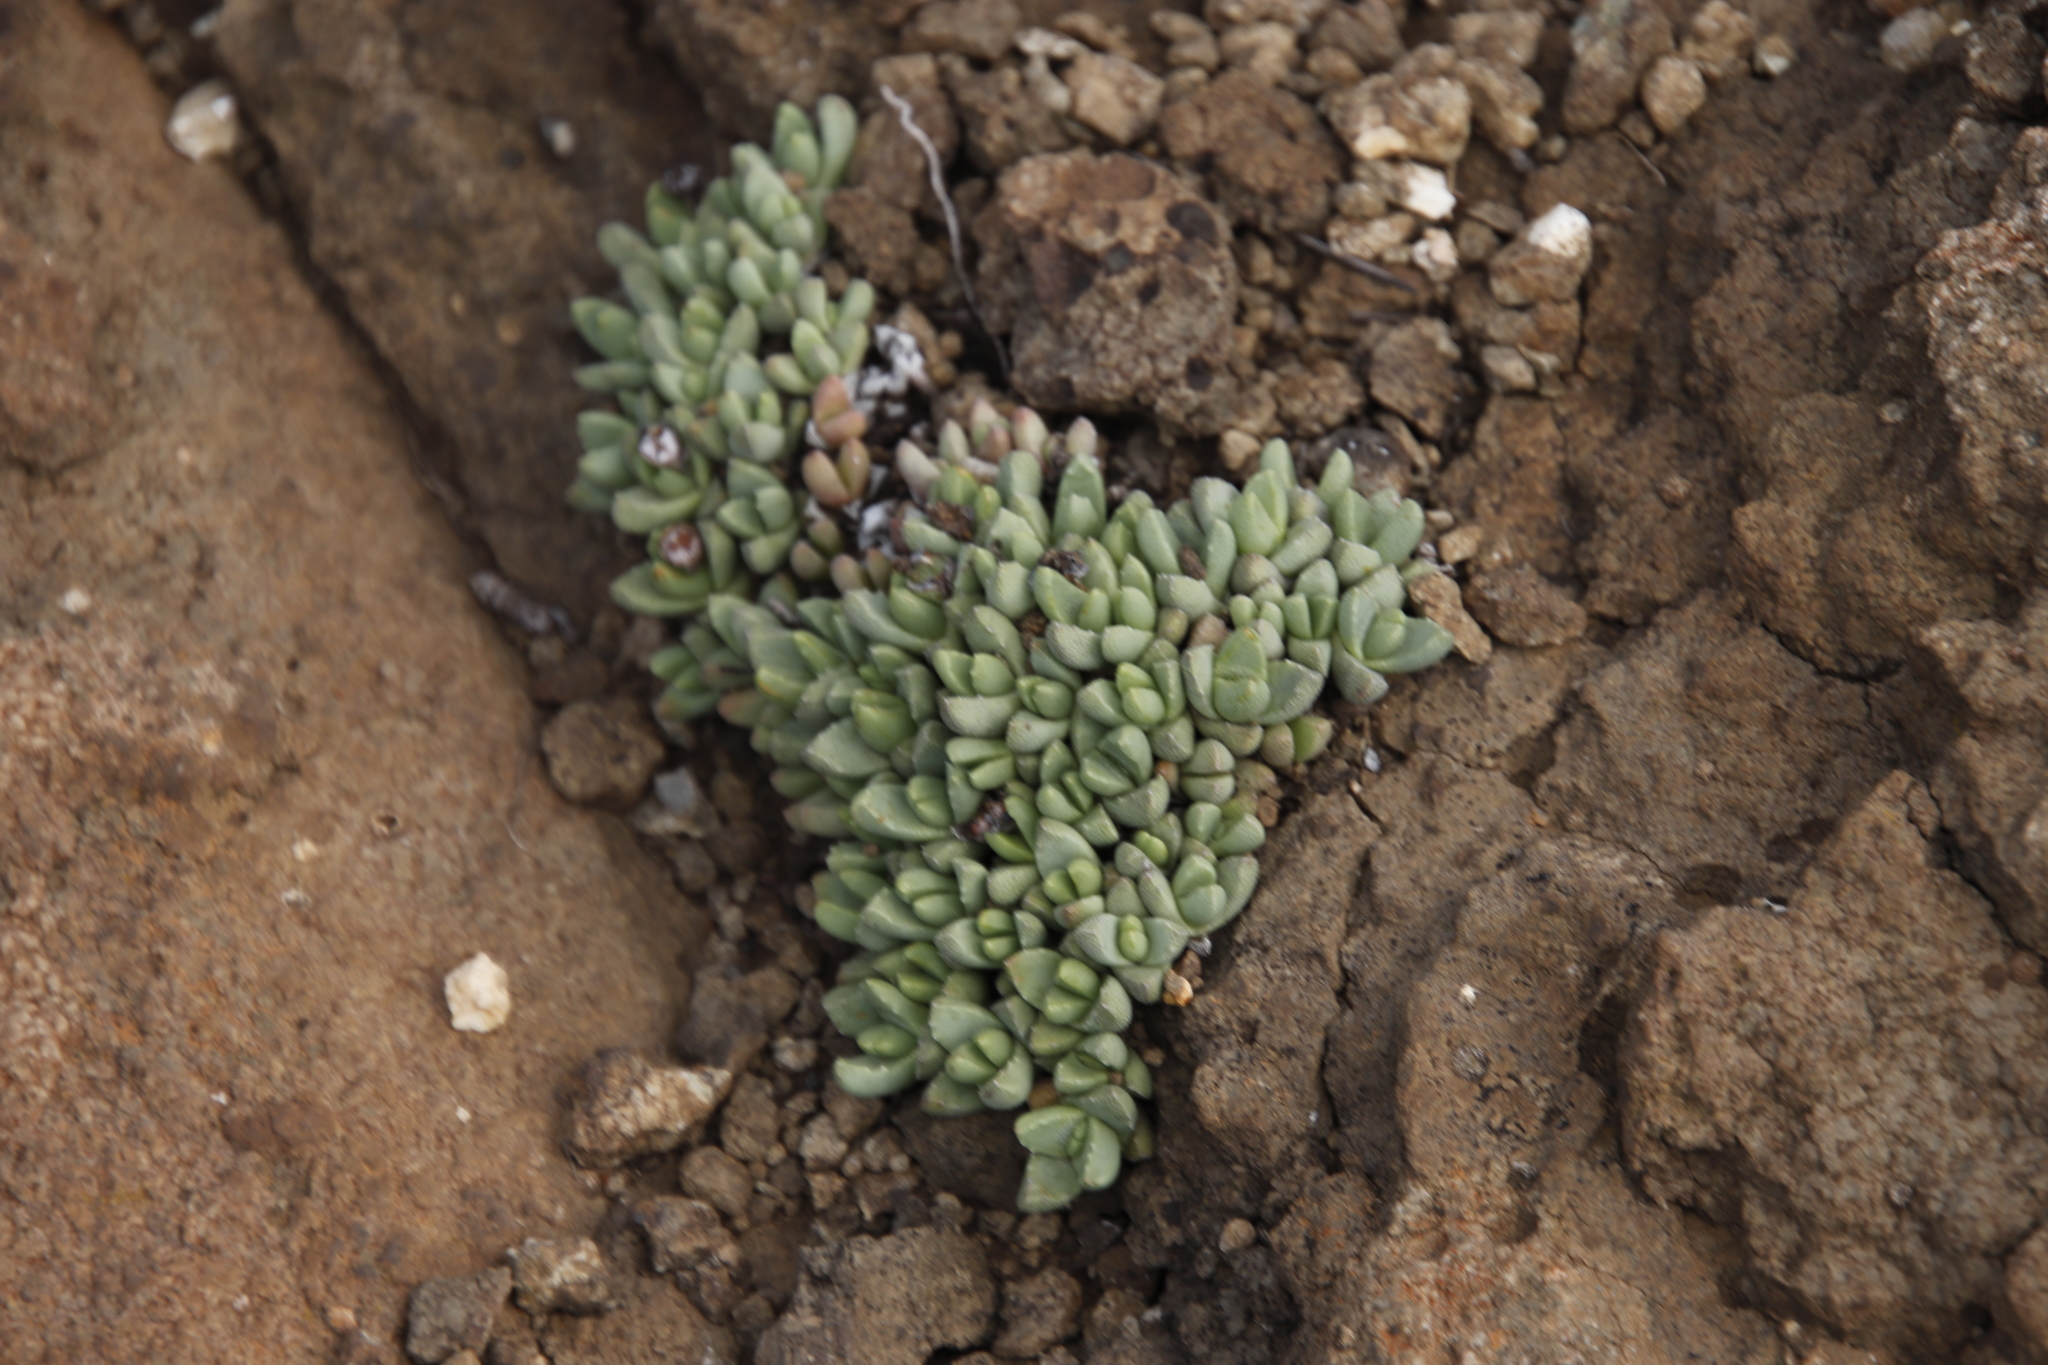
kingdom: Plantae
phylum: Tracheophyta
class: Magnoliopsida
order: Caryophyllales
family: Aizoaceae
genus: Stomatium
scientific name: Stomatium gerstneri
